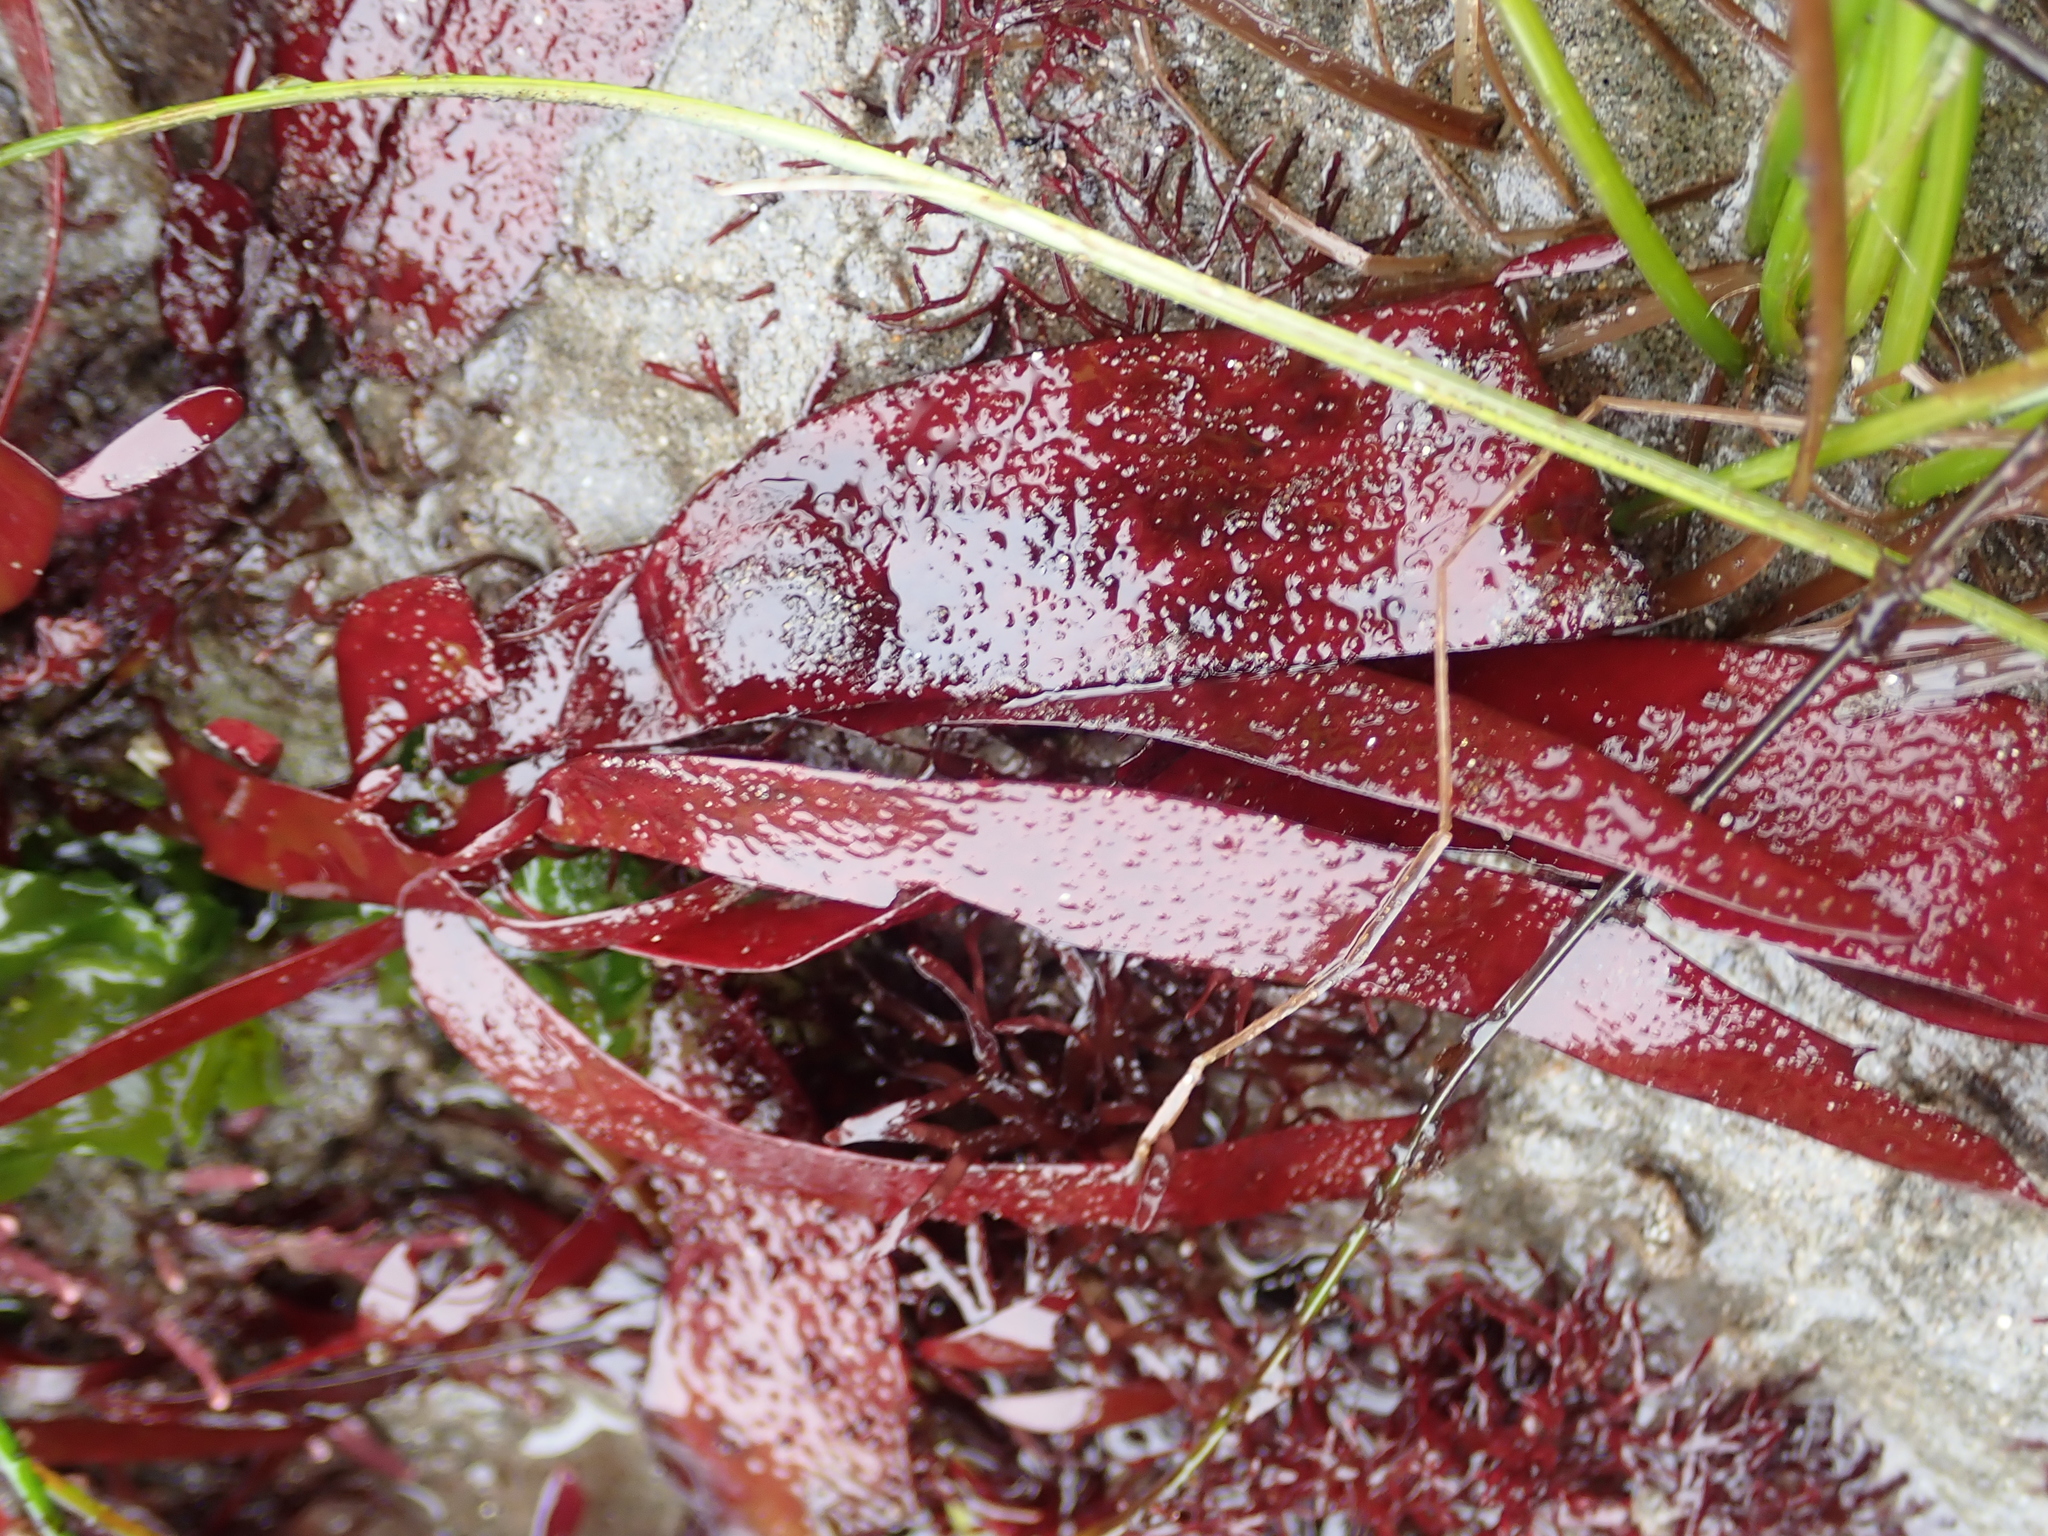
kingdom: Plantae
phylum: Rhodophyta
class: Florideophyceae
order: Halymeniales
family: Halymeniaceae
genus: Grateloupia
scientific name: Grateloupia Prionitis sternbergii
